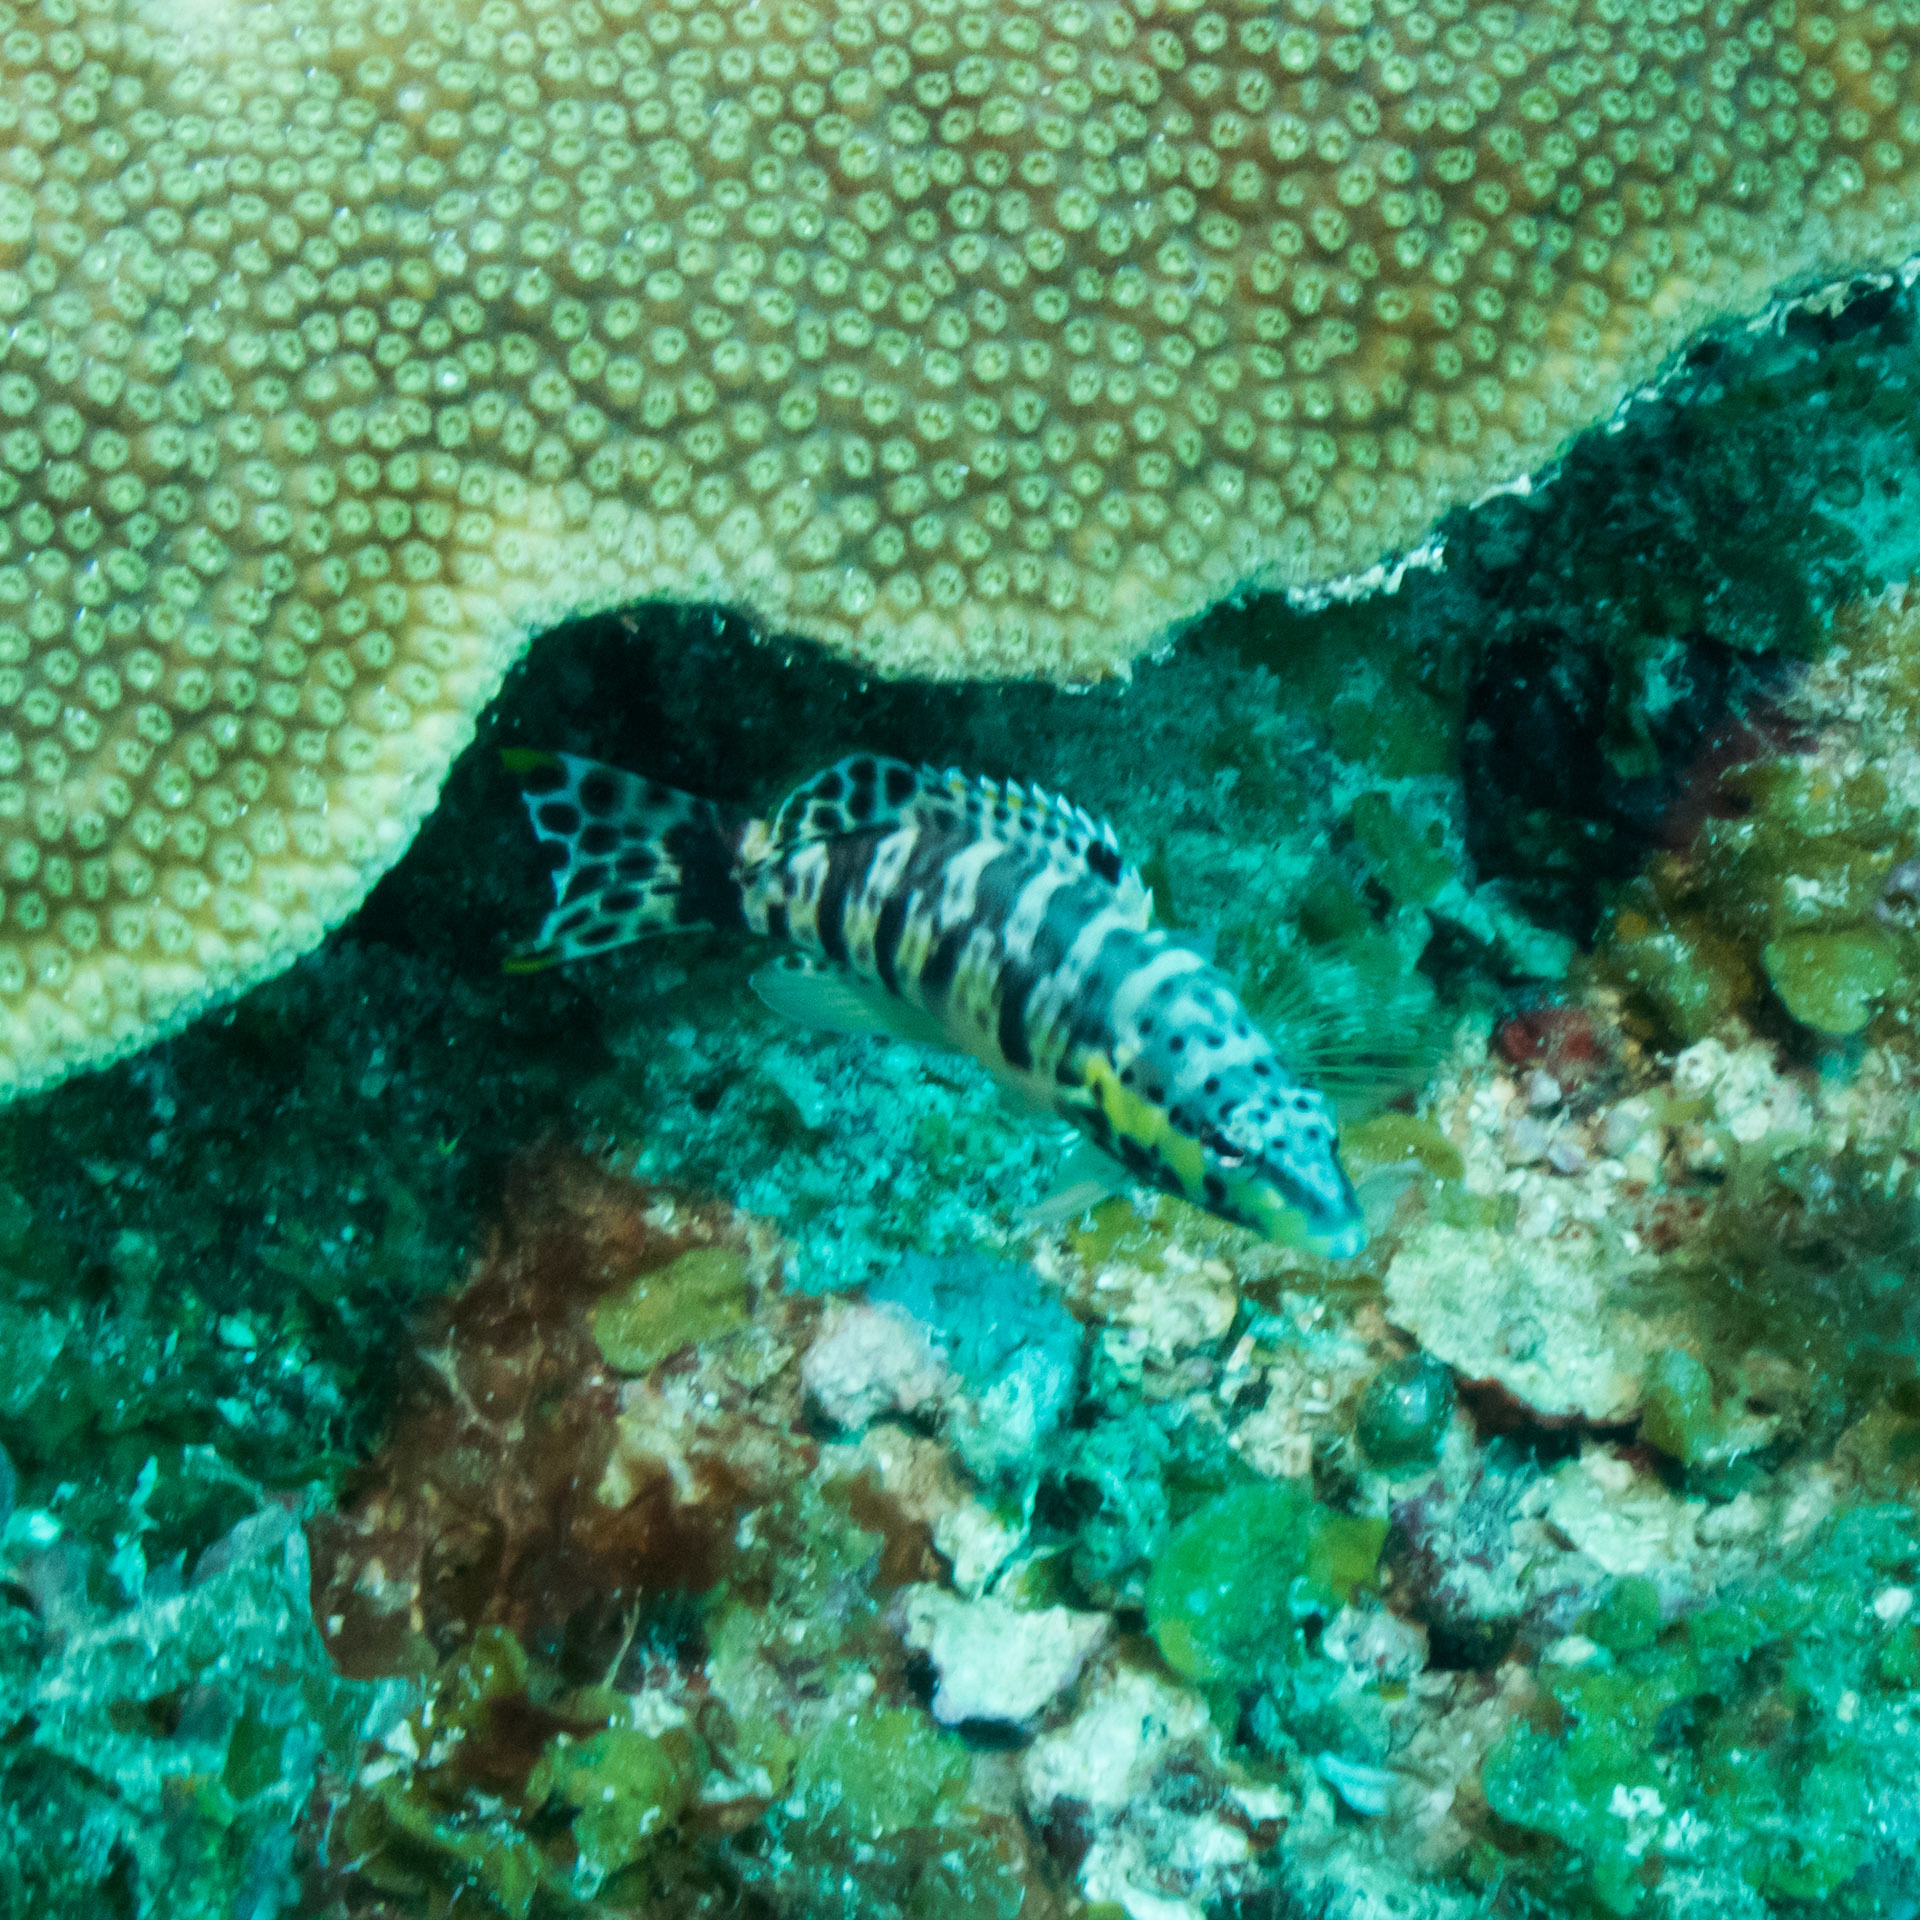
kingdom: Animalia
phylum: Chordata
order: Perciformes
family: Serranidae
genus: Serranus
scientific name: Serranus tigrinus
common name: Harlequin bass
